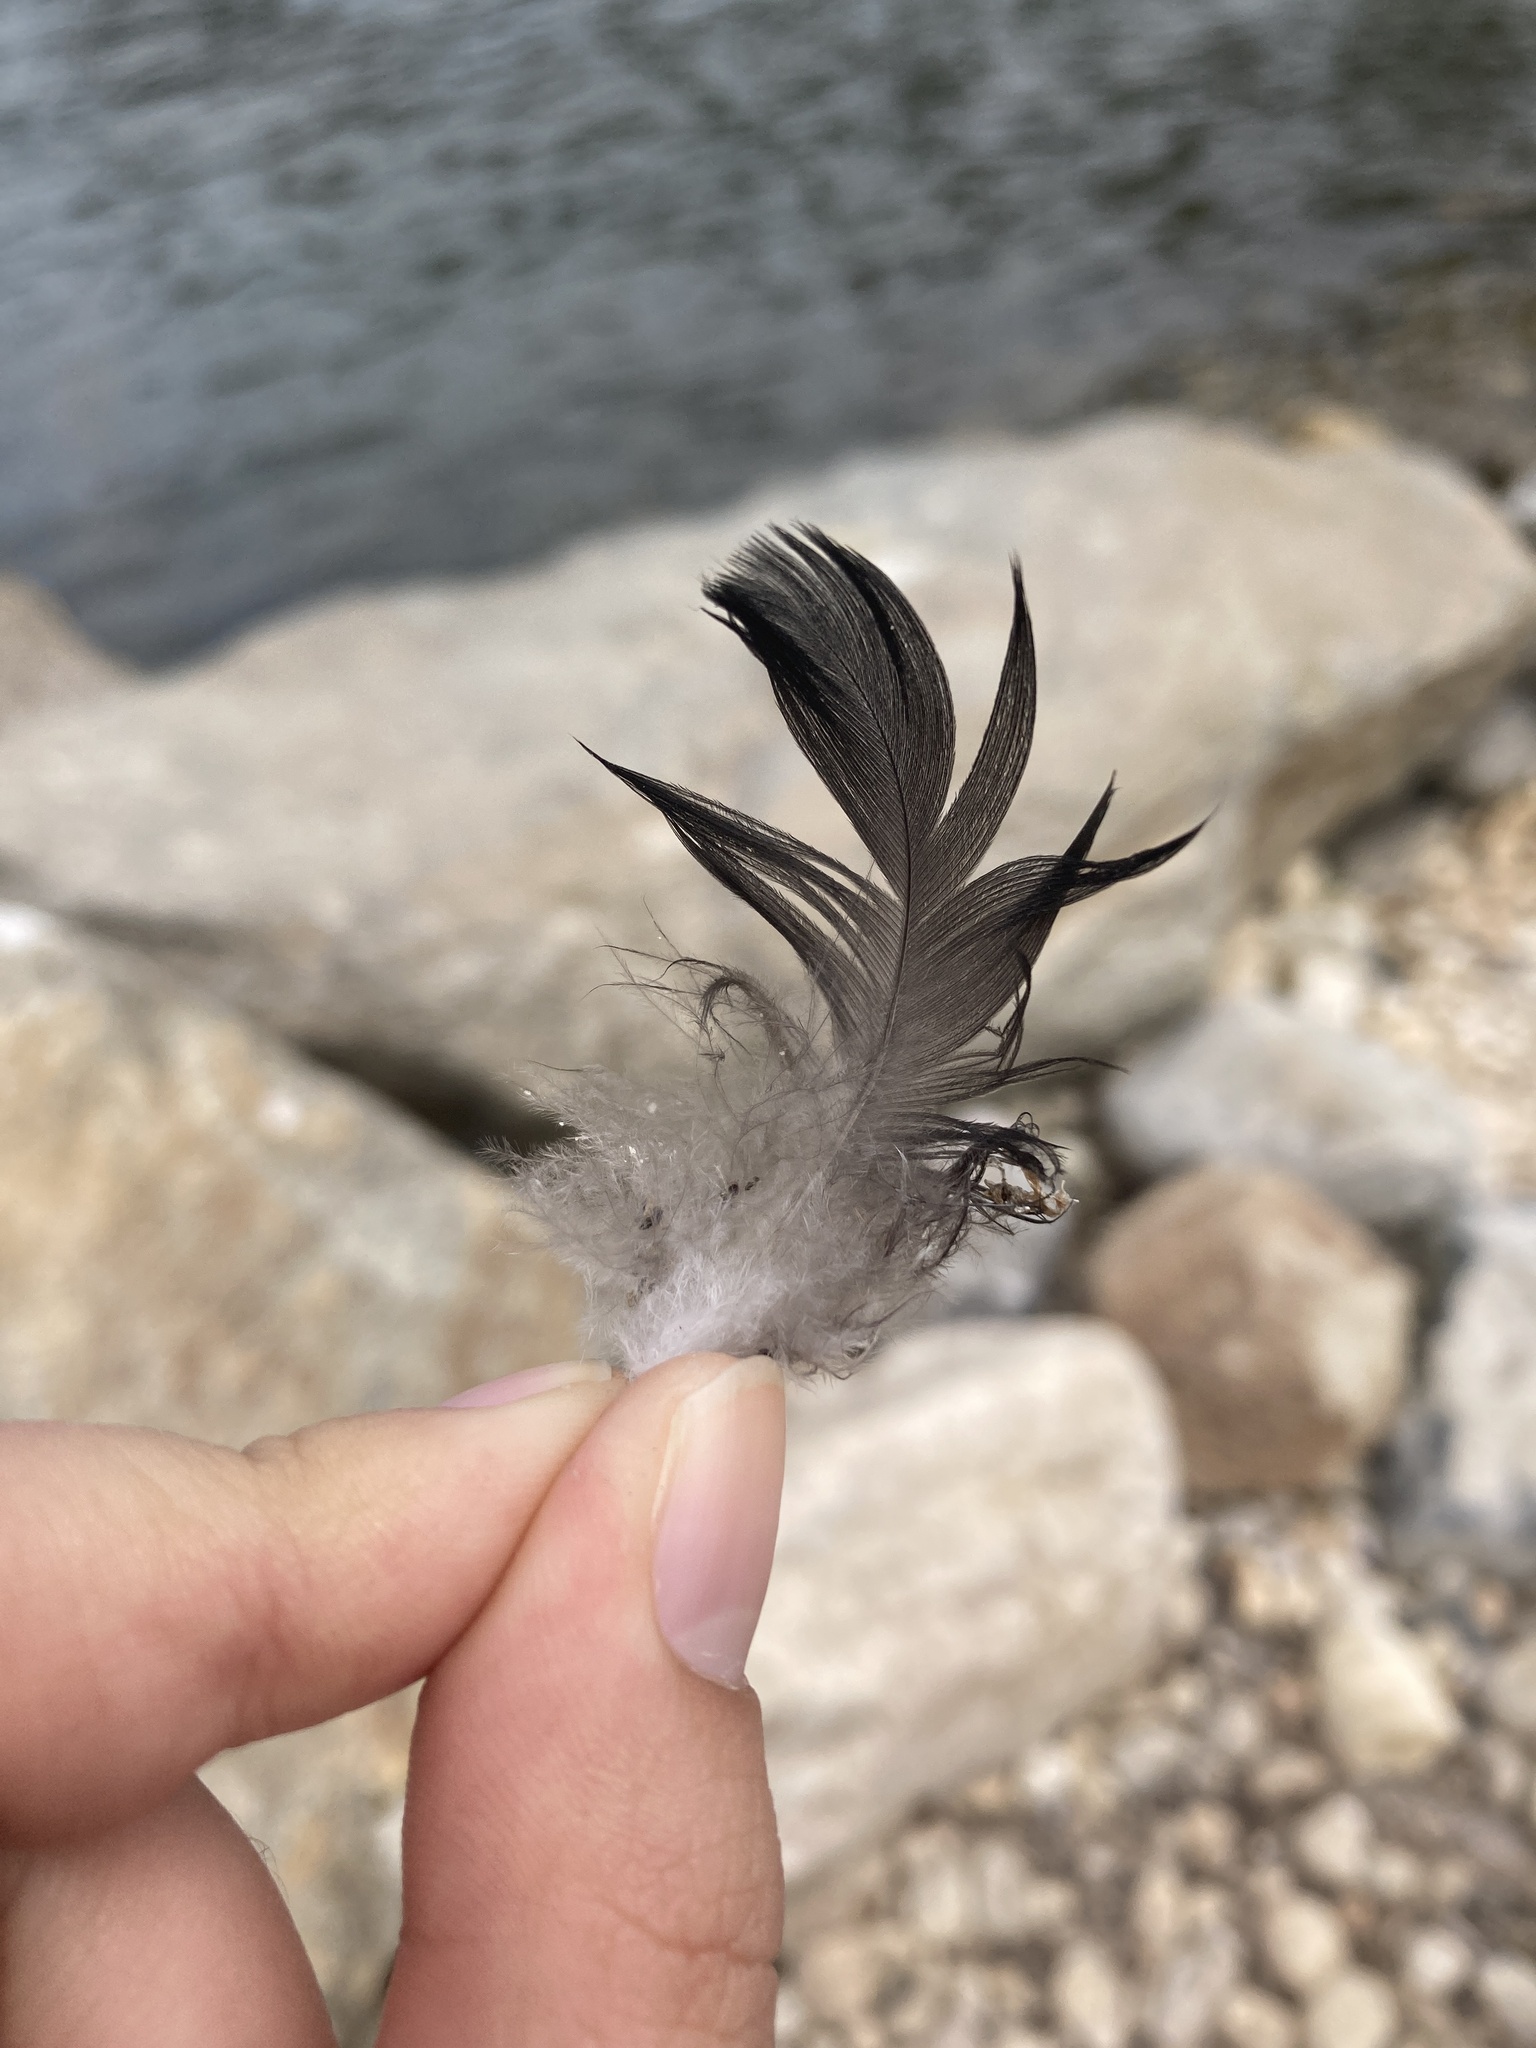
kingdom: Animalia
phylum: Chordata
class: Aves
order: Passeriformes
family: Corvidae
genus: Corvus
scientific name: Corvus ossifragus
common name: Fish crow
